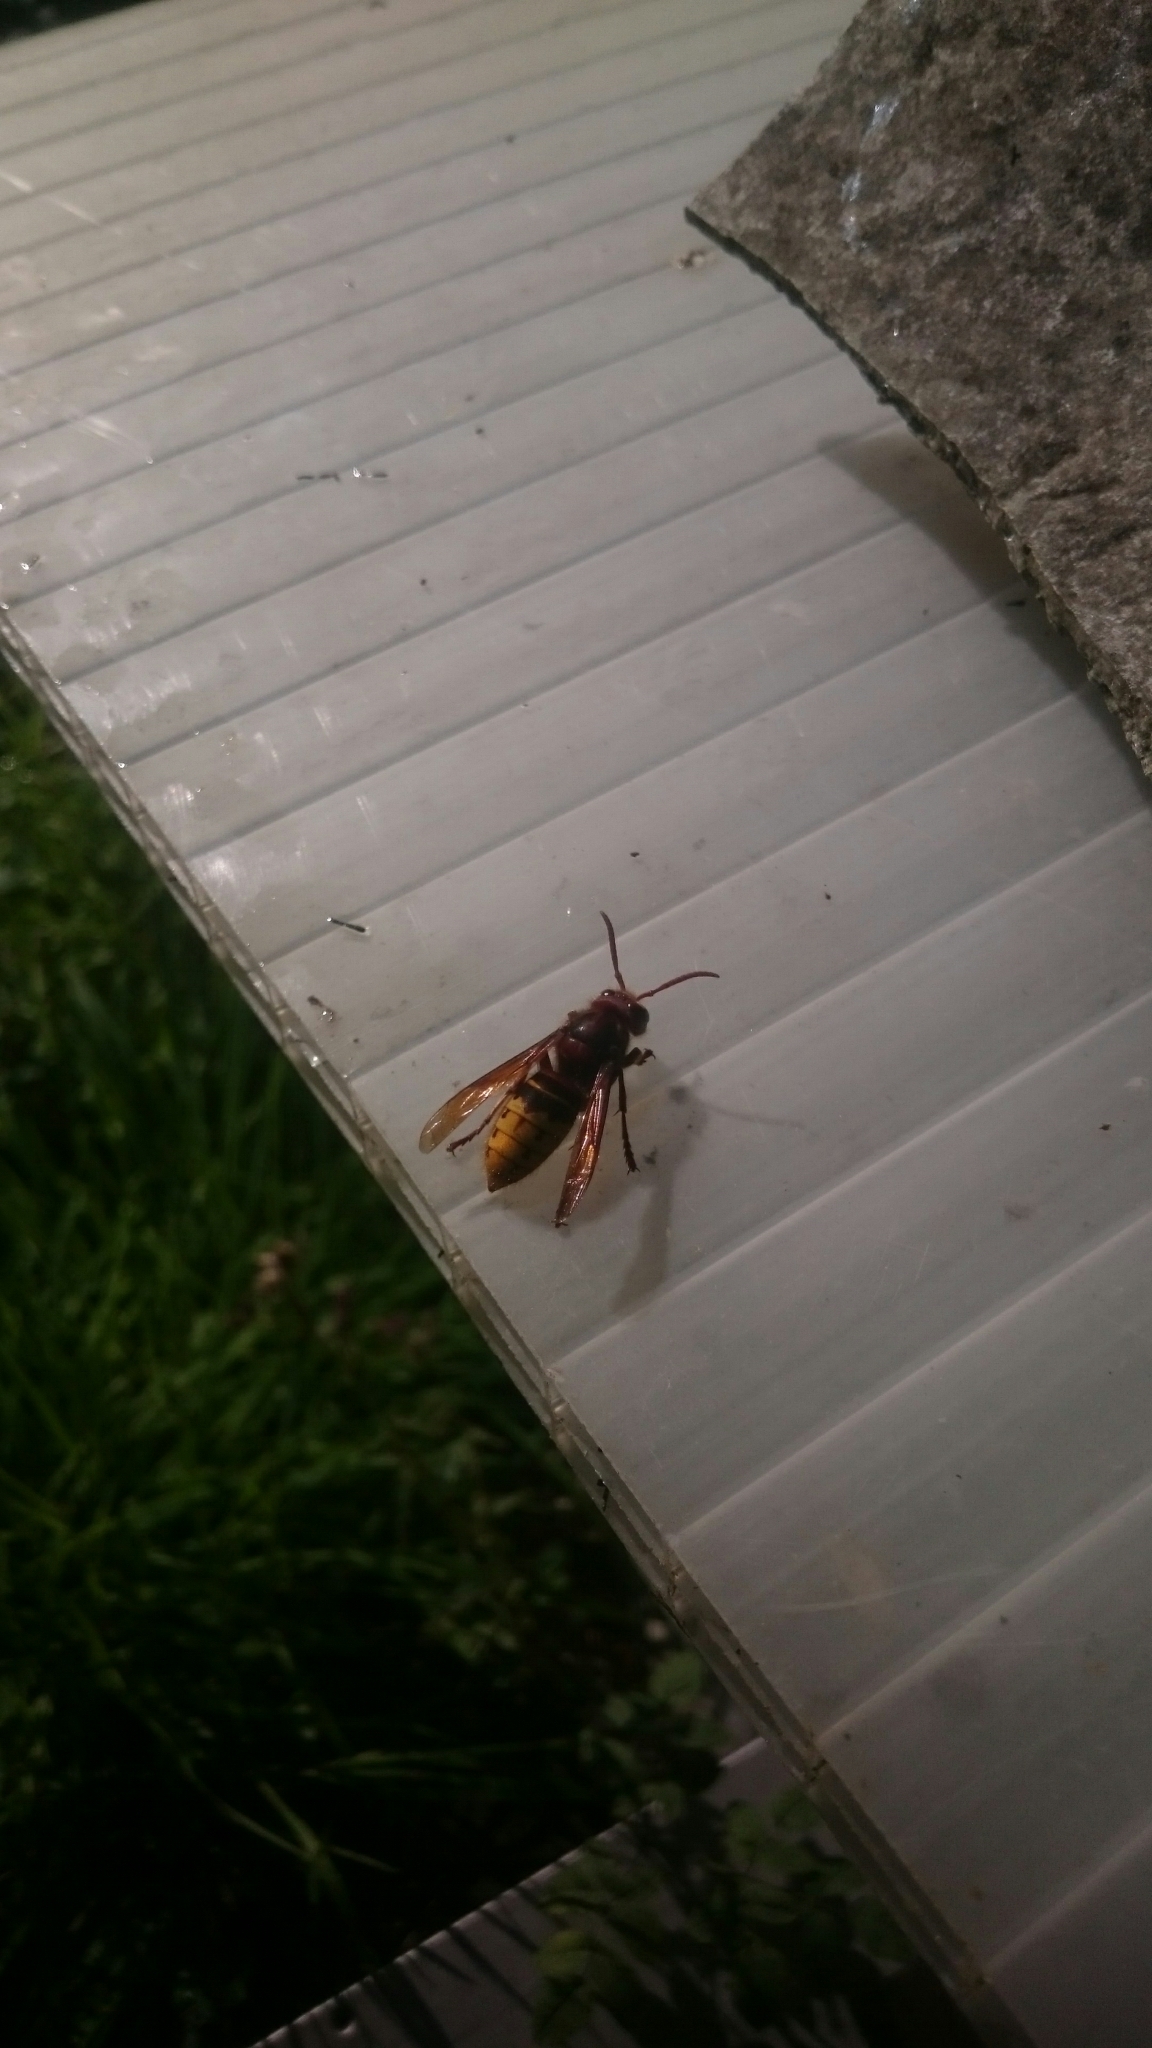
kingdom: Animalia
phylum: Arthropoda
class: Insecta
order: Hymenoptera
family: Vespidae
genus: Vespa
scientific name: Vespa crabro
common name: Hornet
